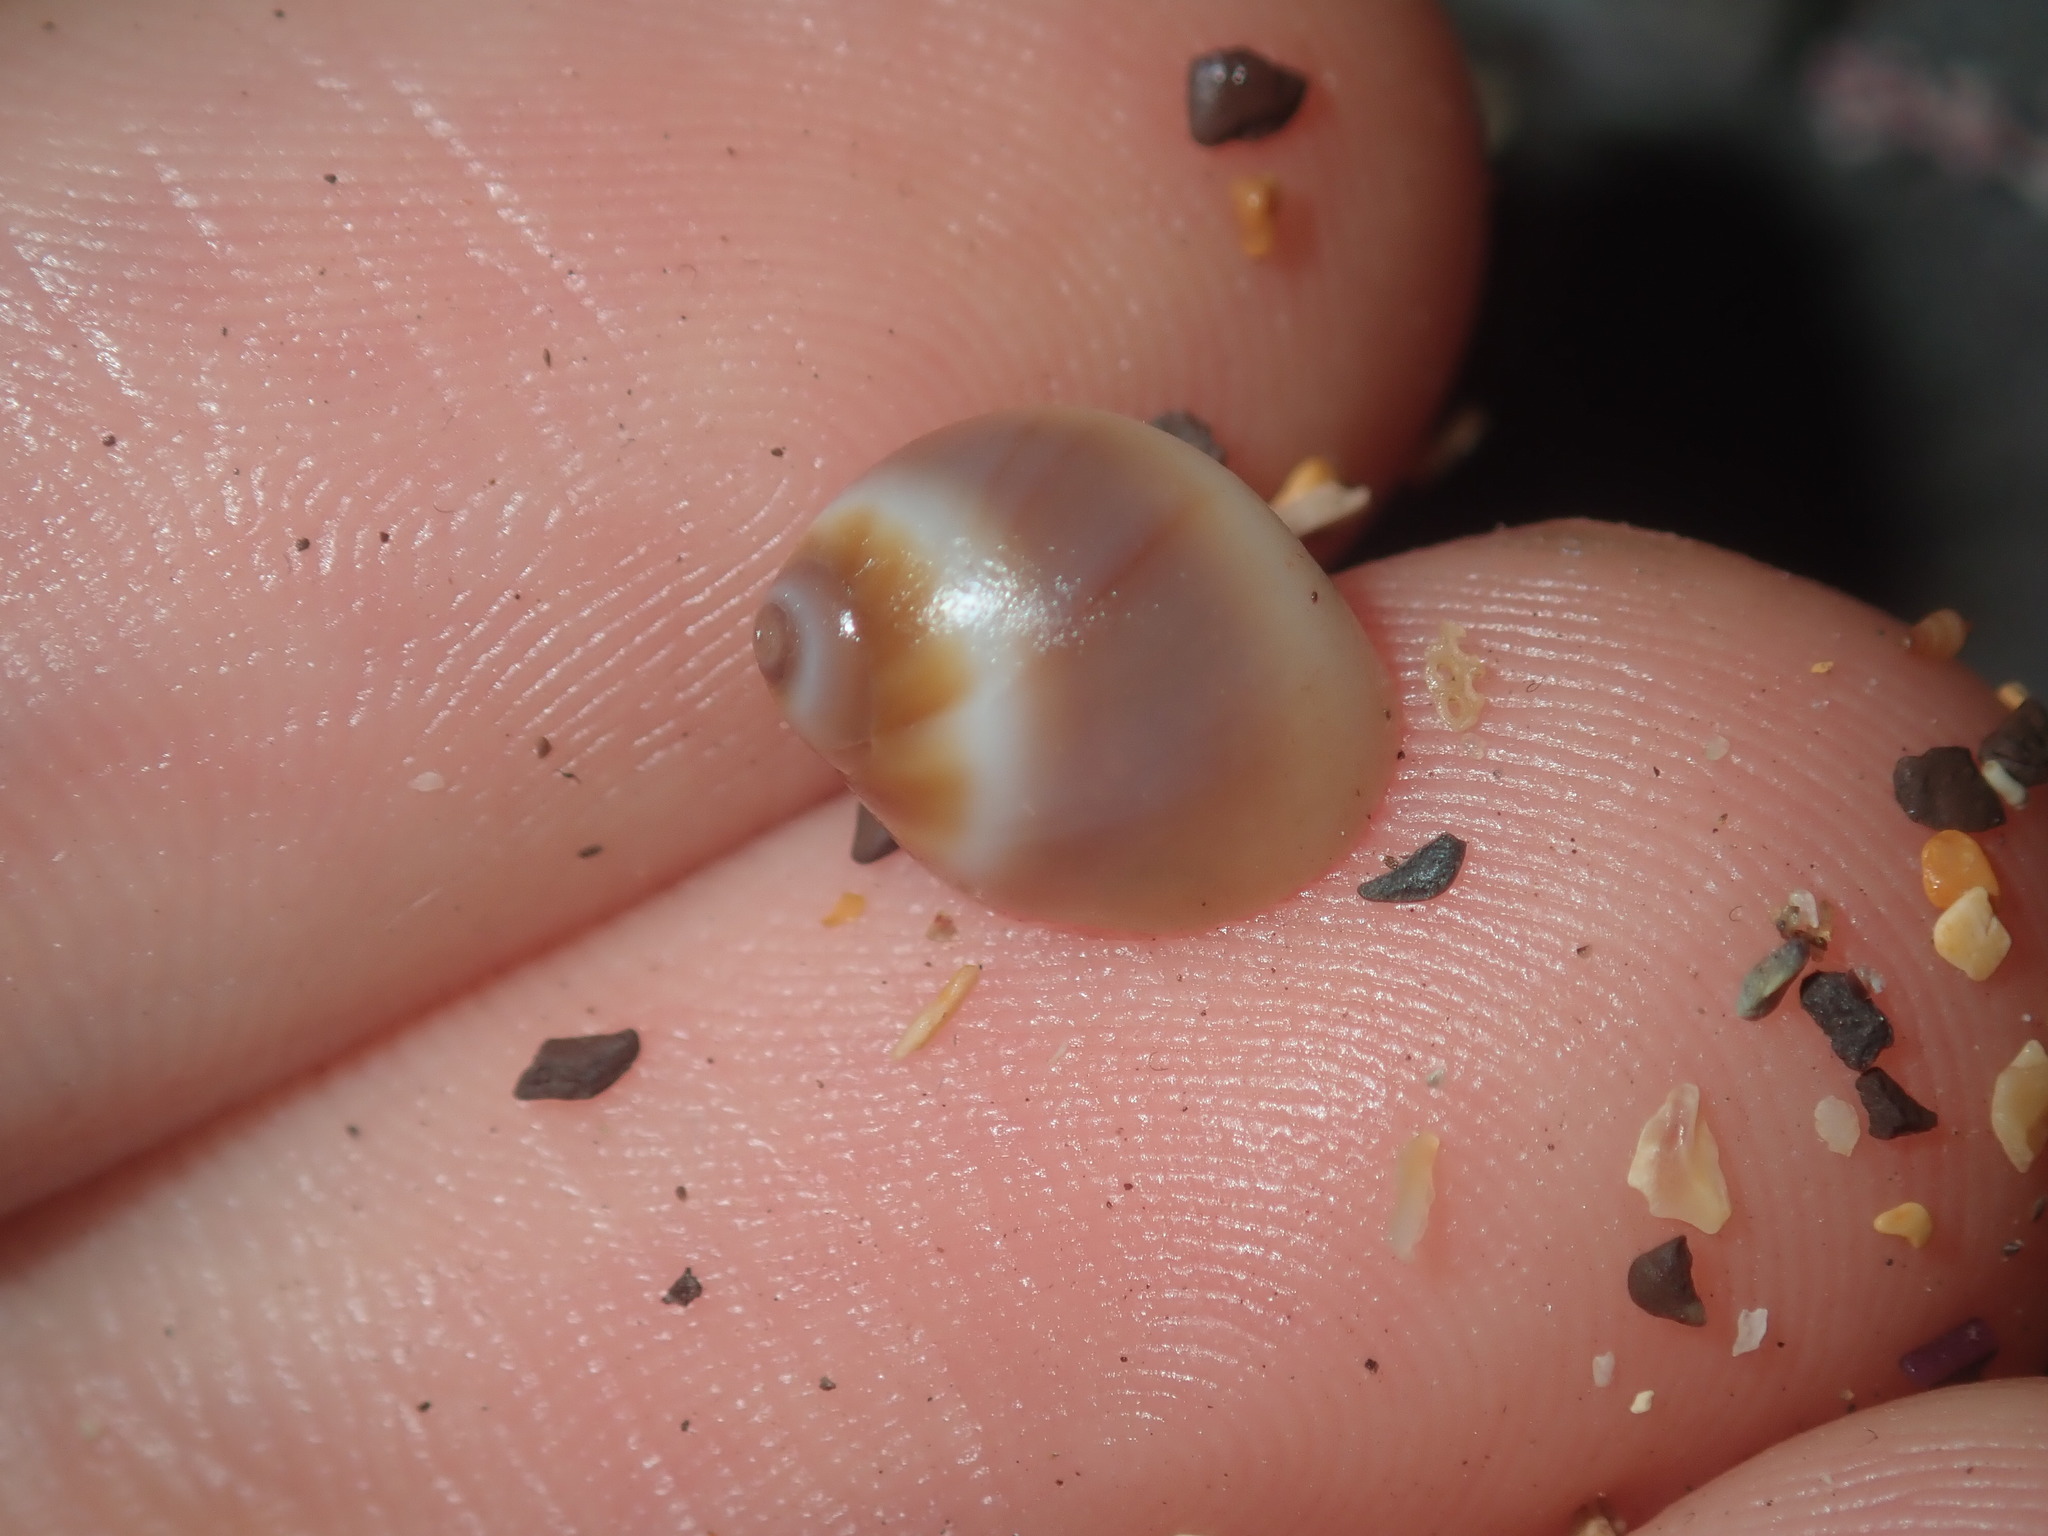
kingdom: Animalia
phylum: Mollusca
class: Gastropoda
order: Littorinimorpha
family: Naticidae
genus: Conuber
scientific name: Conuber conicum
